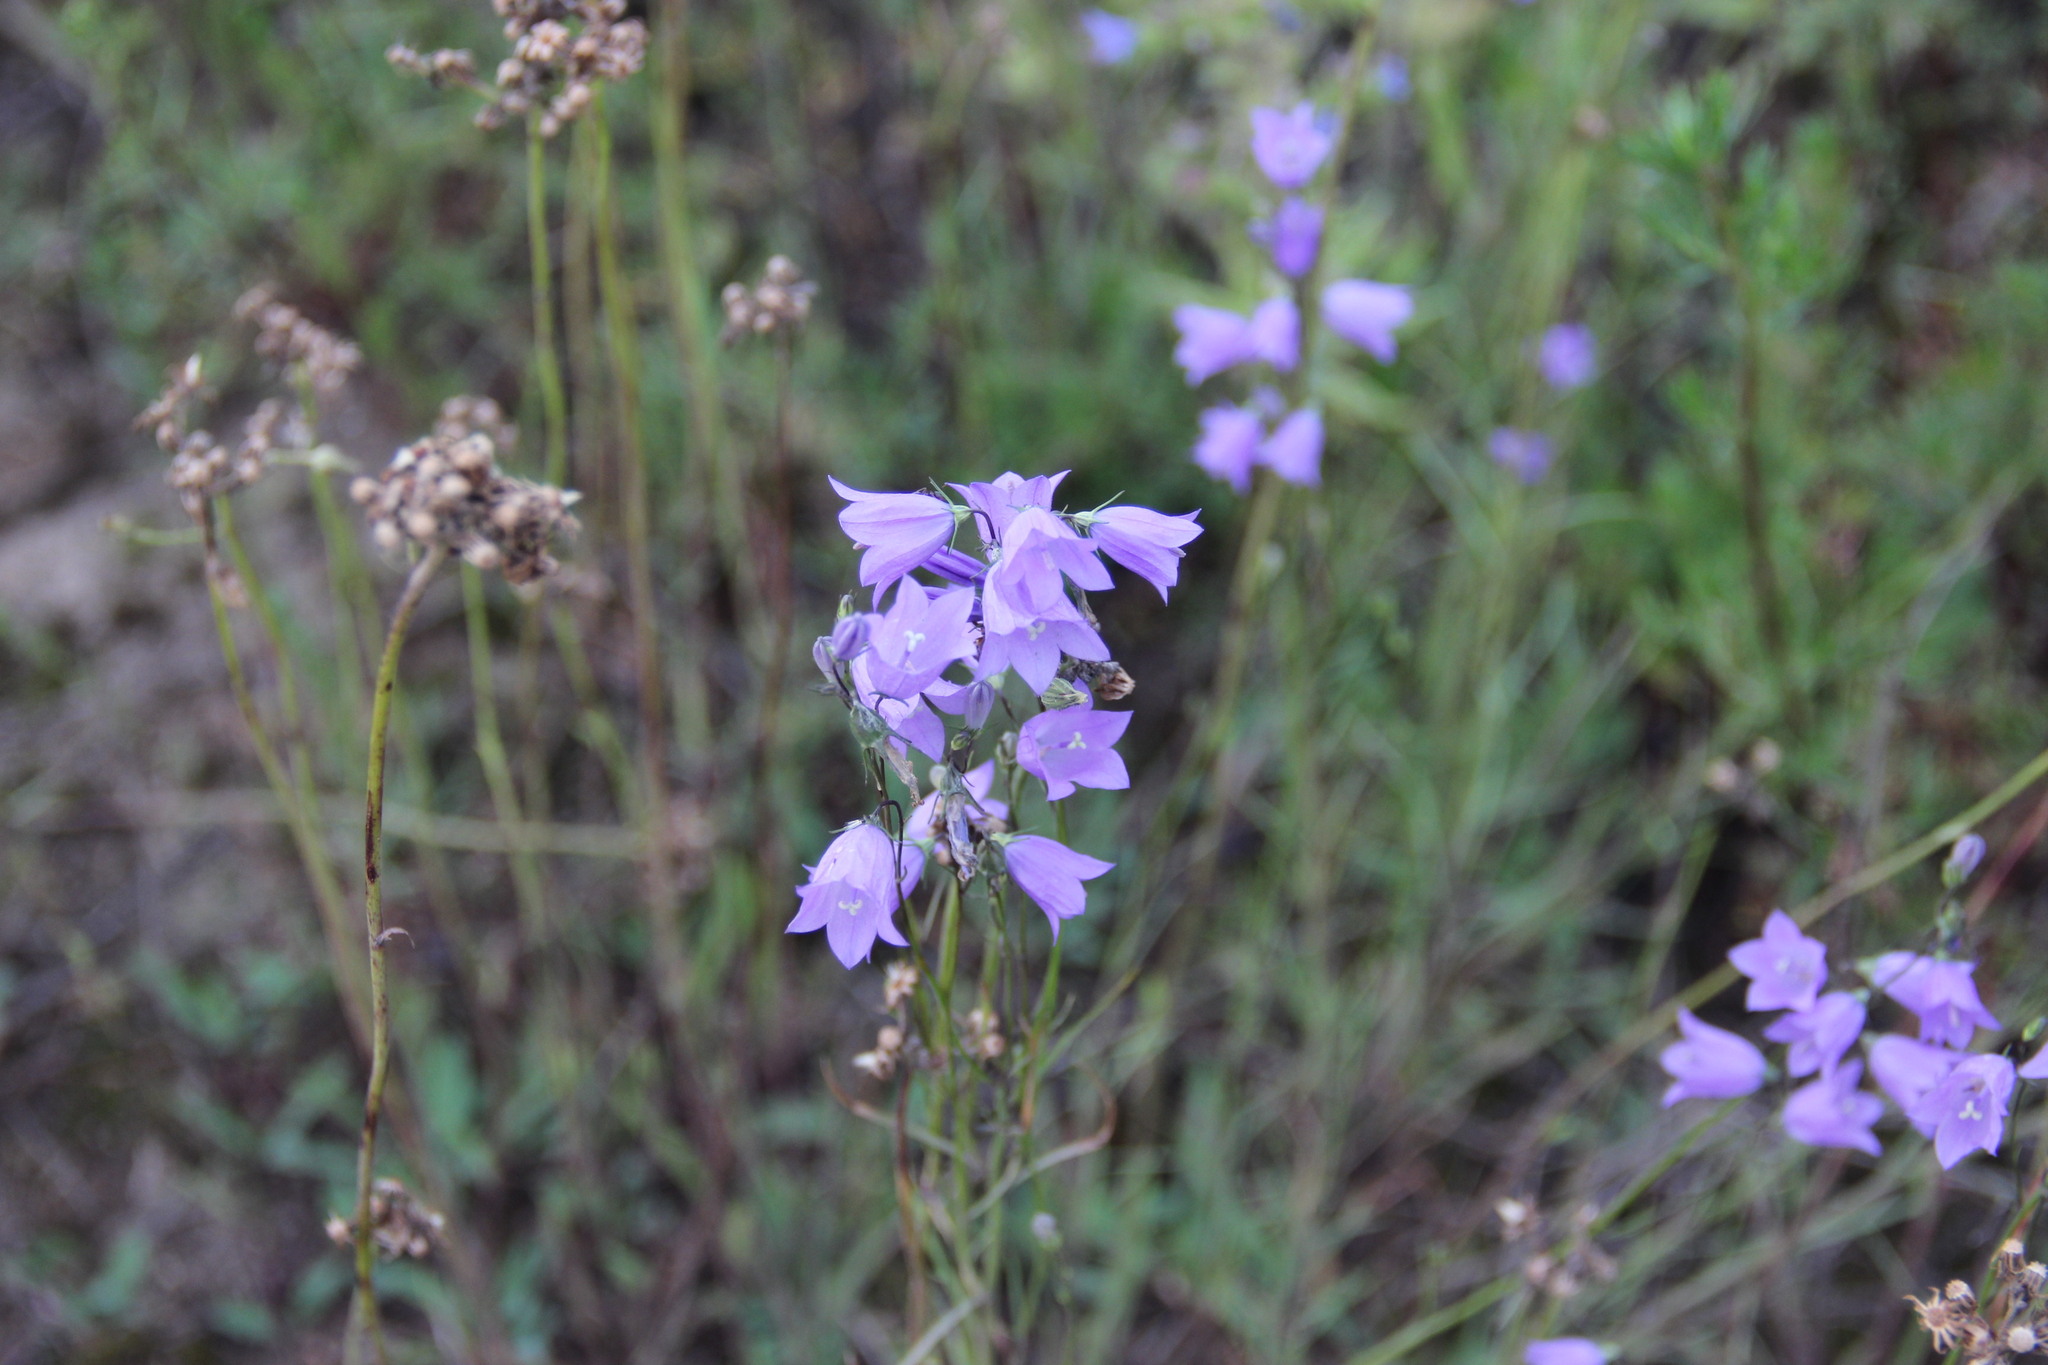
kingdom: Plantae
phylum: Tracheophyta
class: Magnoliopsida
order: Asterales
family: Campanulaceae
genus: Campanula
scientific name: Campanula rotundifolia
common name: Harebell
